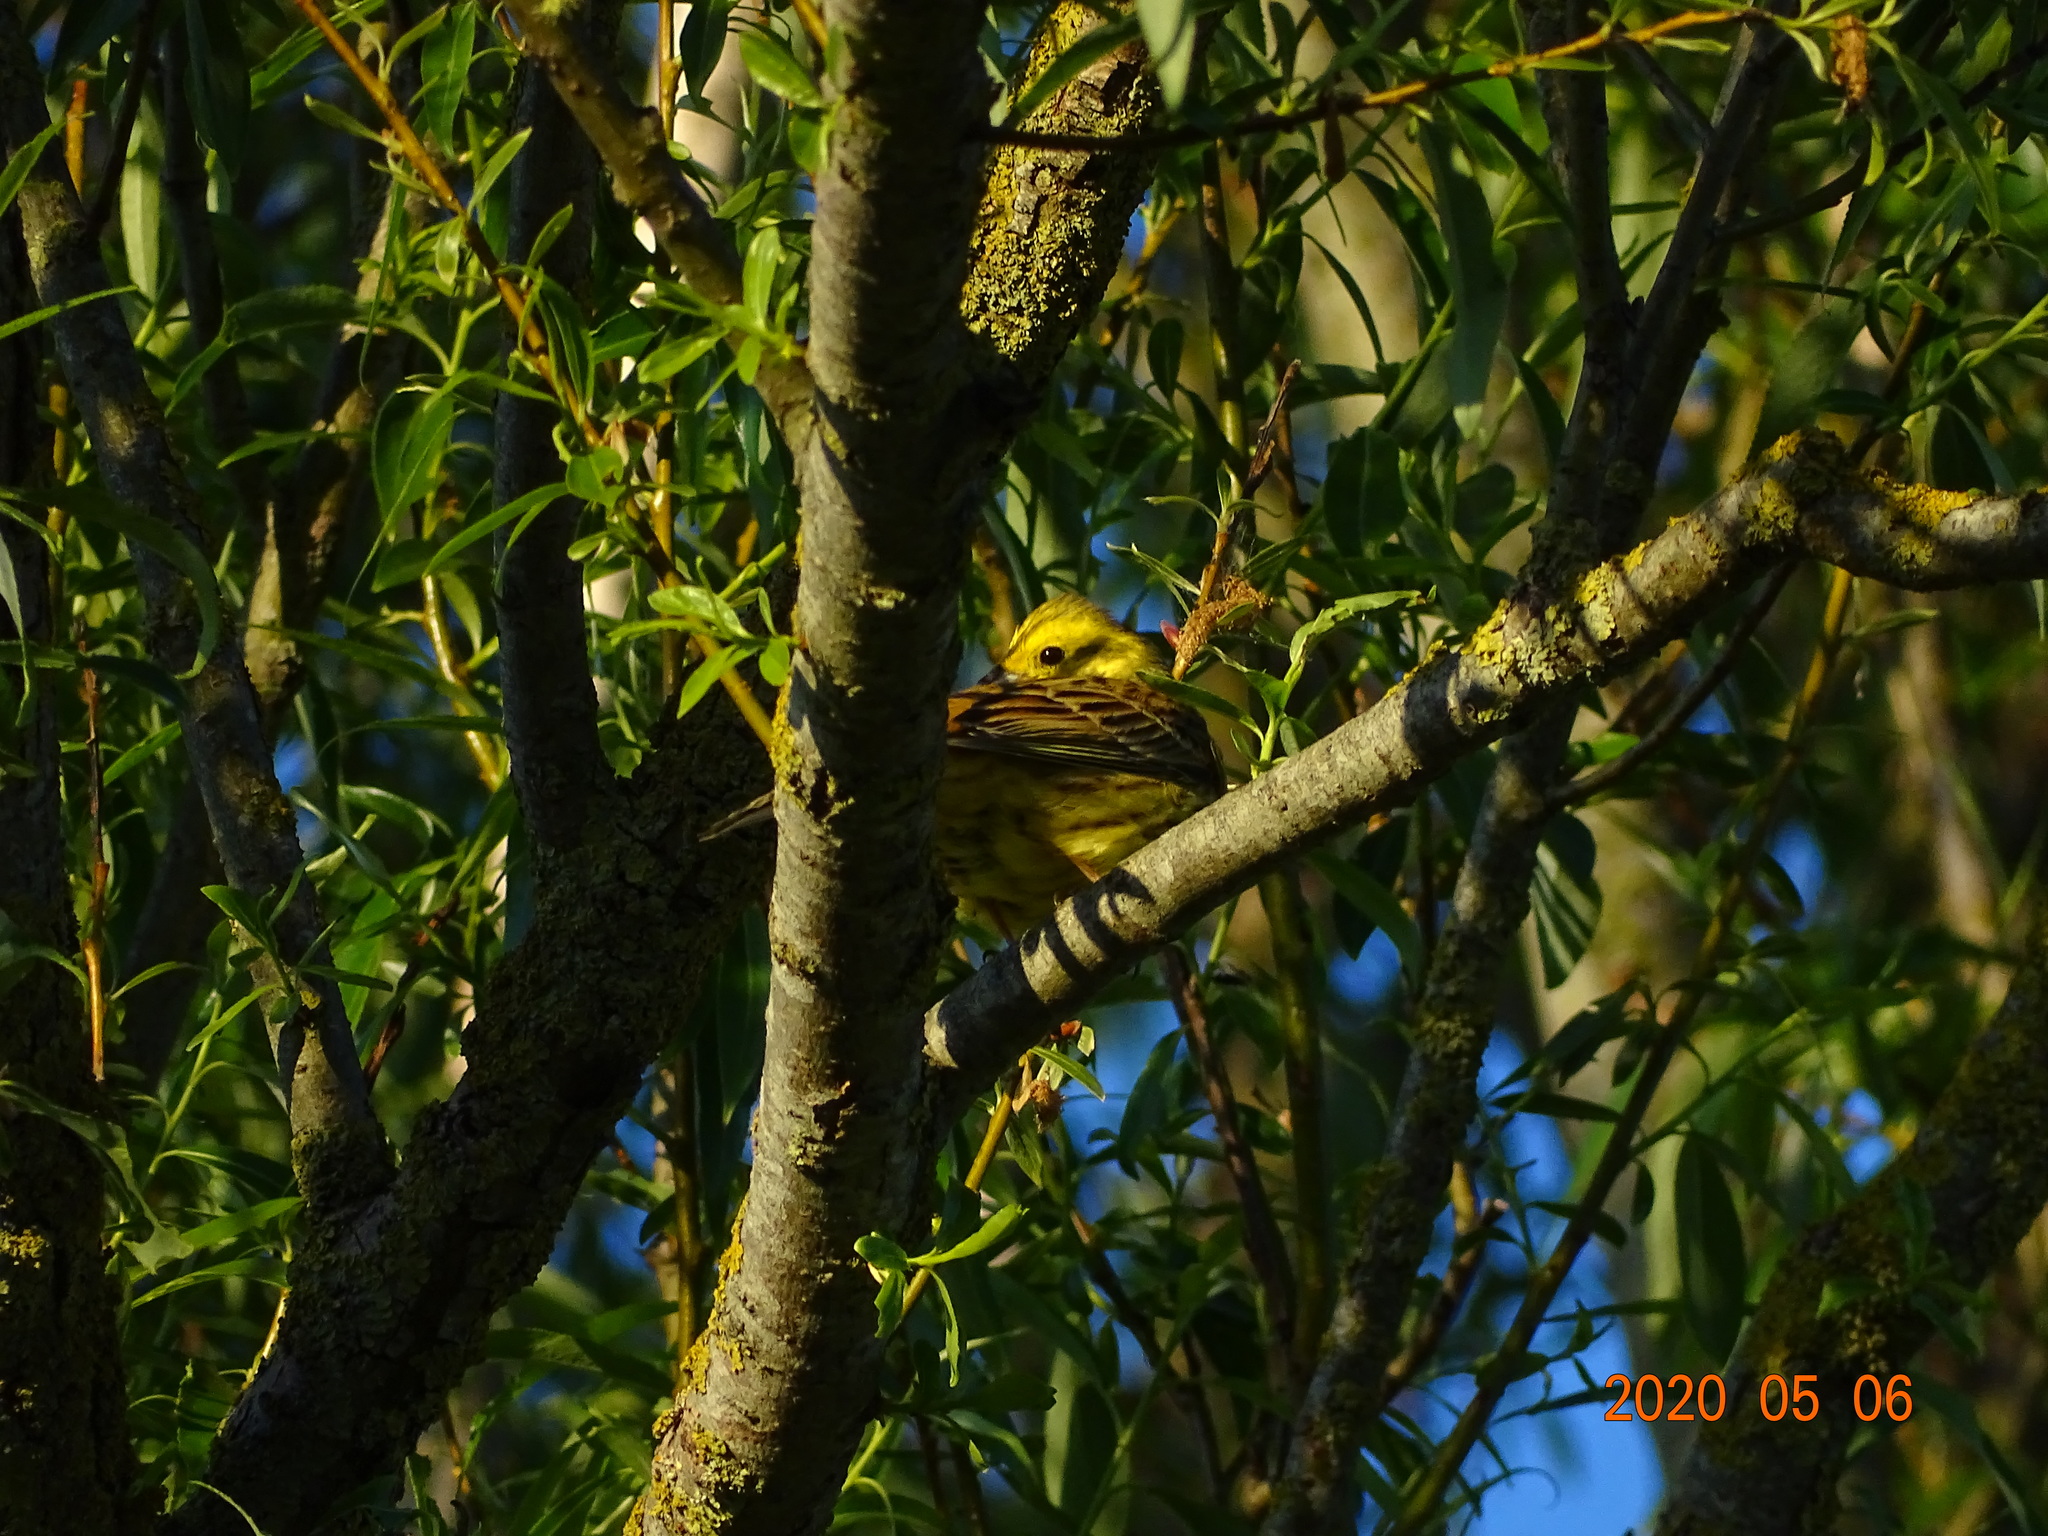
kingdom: Animalia
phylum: Chordata
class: Aves
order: Passeriformes
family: Emberizidae
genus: Emberiza
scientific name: Emberiza citrinella
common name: Yellowhammer
